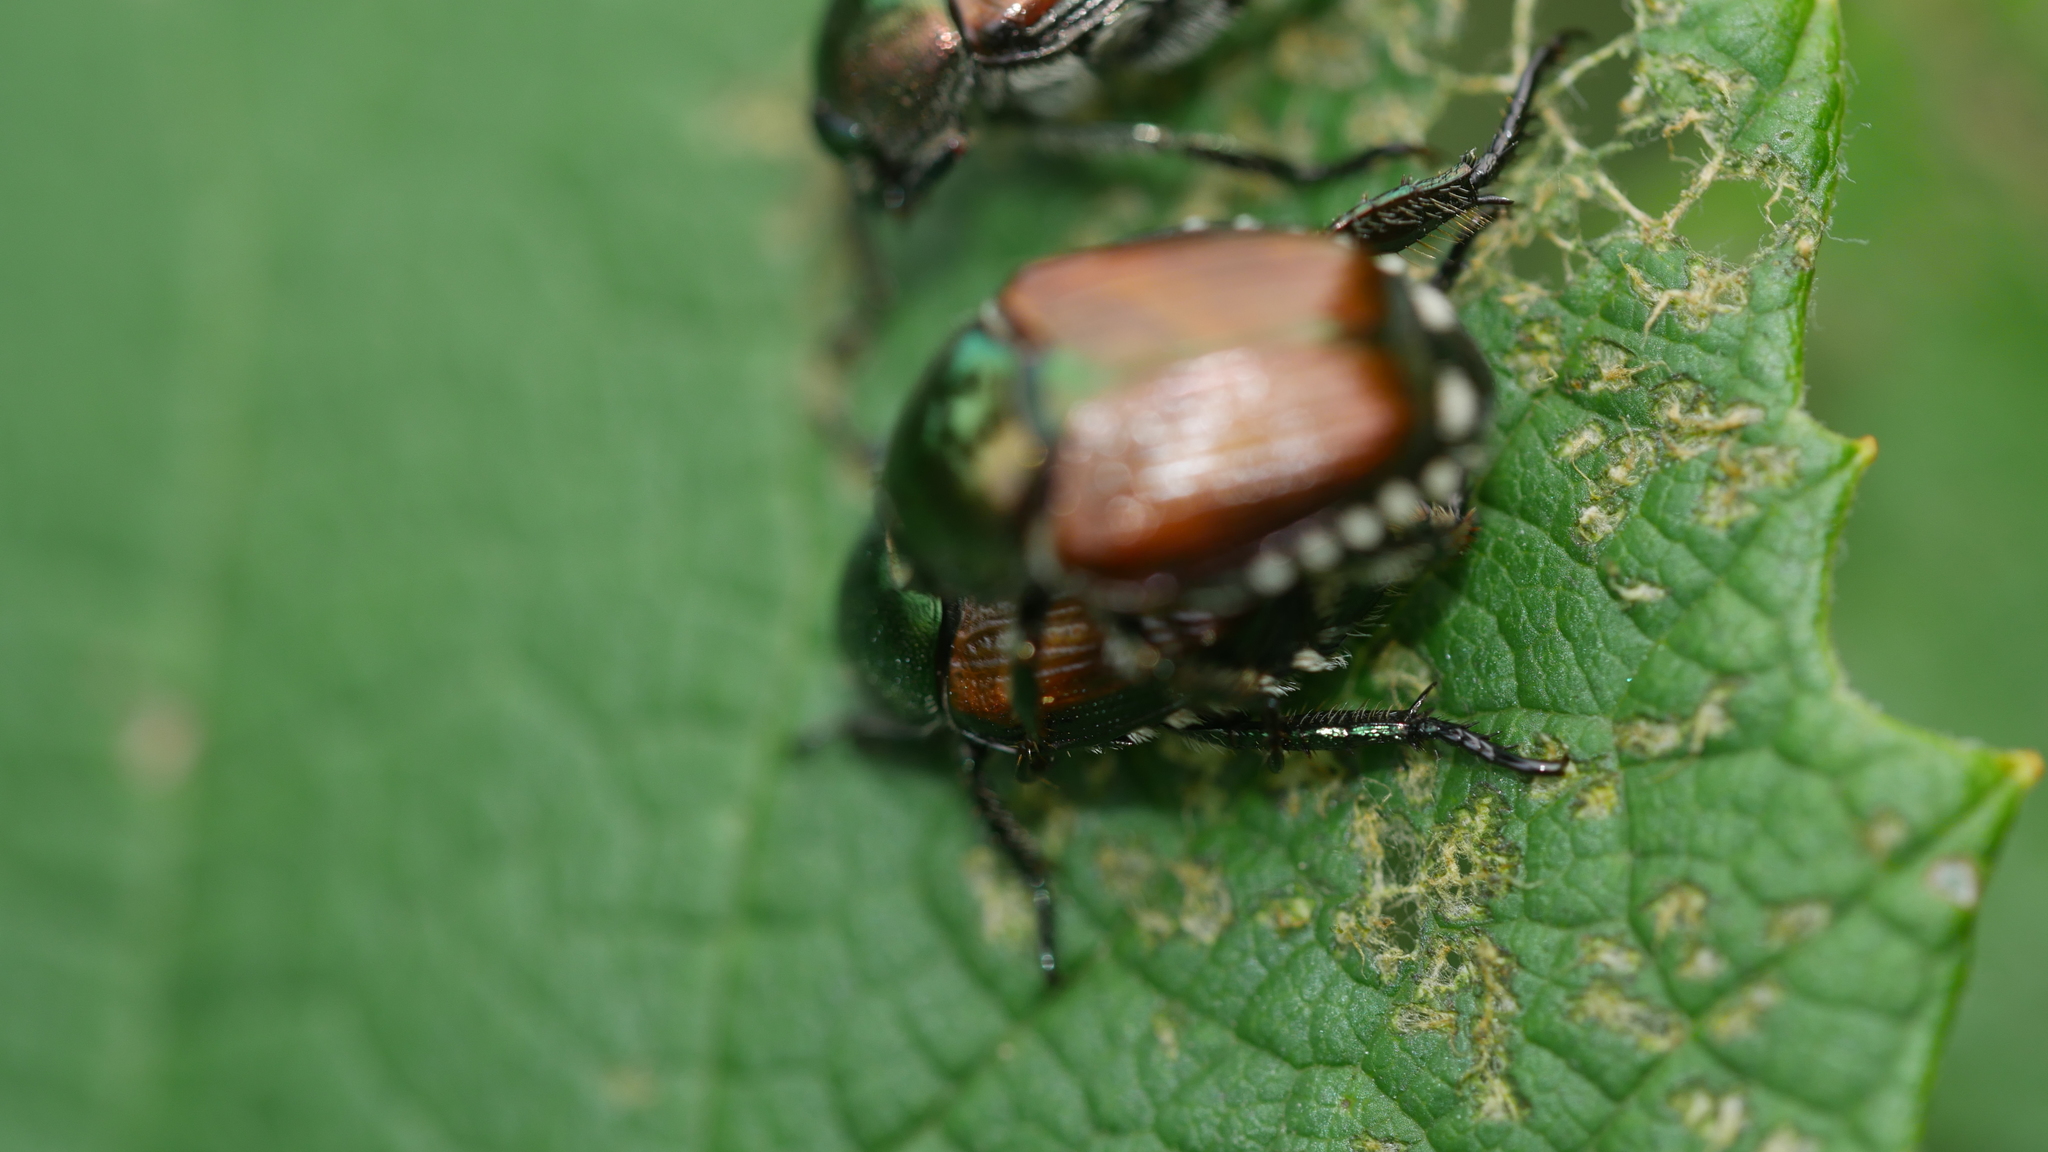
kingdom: Animalia
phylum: Arthropoda
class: Insecta
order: Coleoptera
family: Scarabaeidae
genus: Popillia
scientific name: Popillia japonica
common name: Japanese beetle
